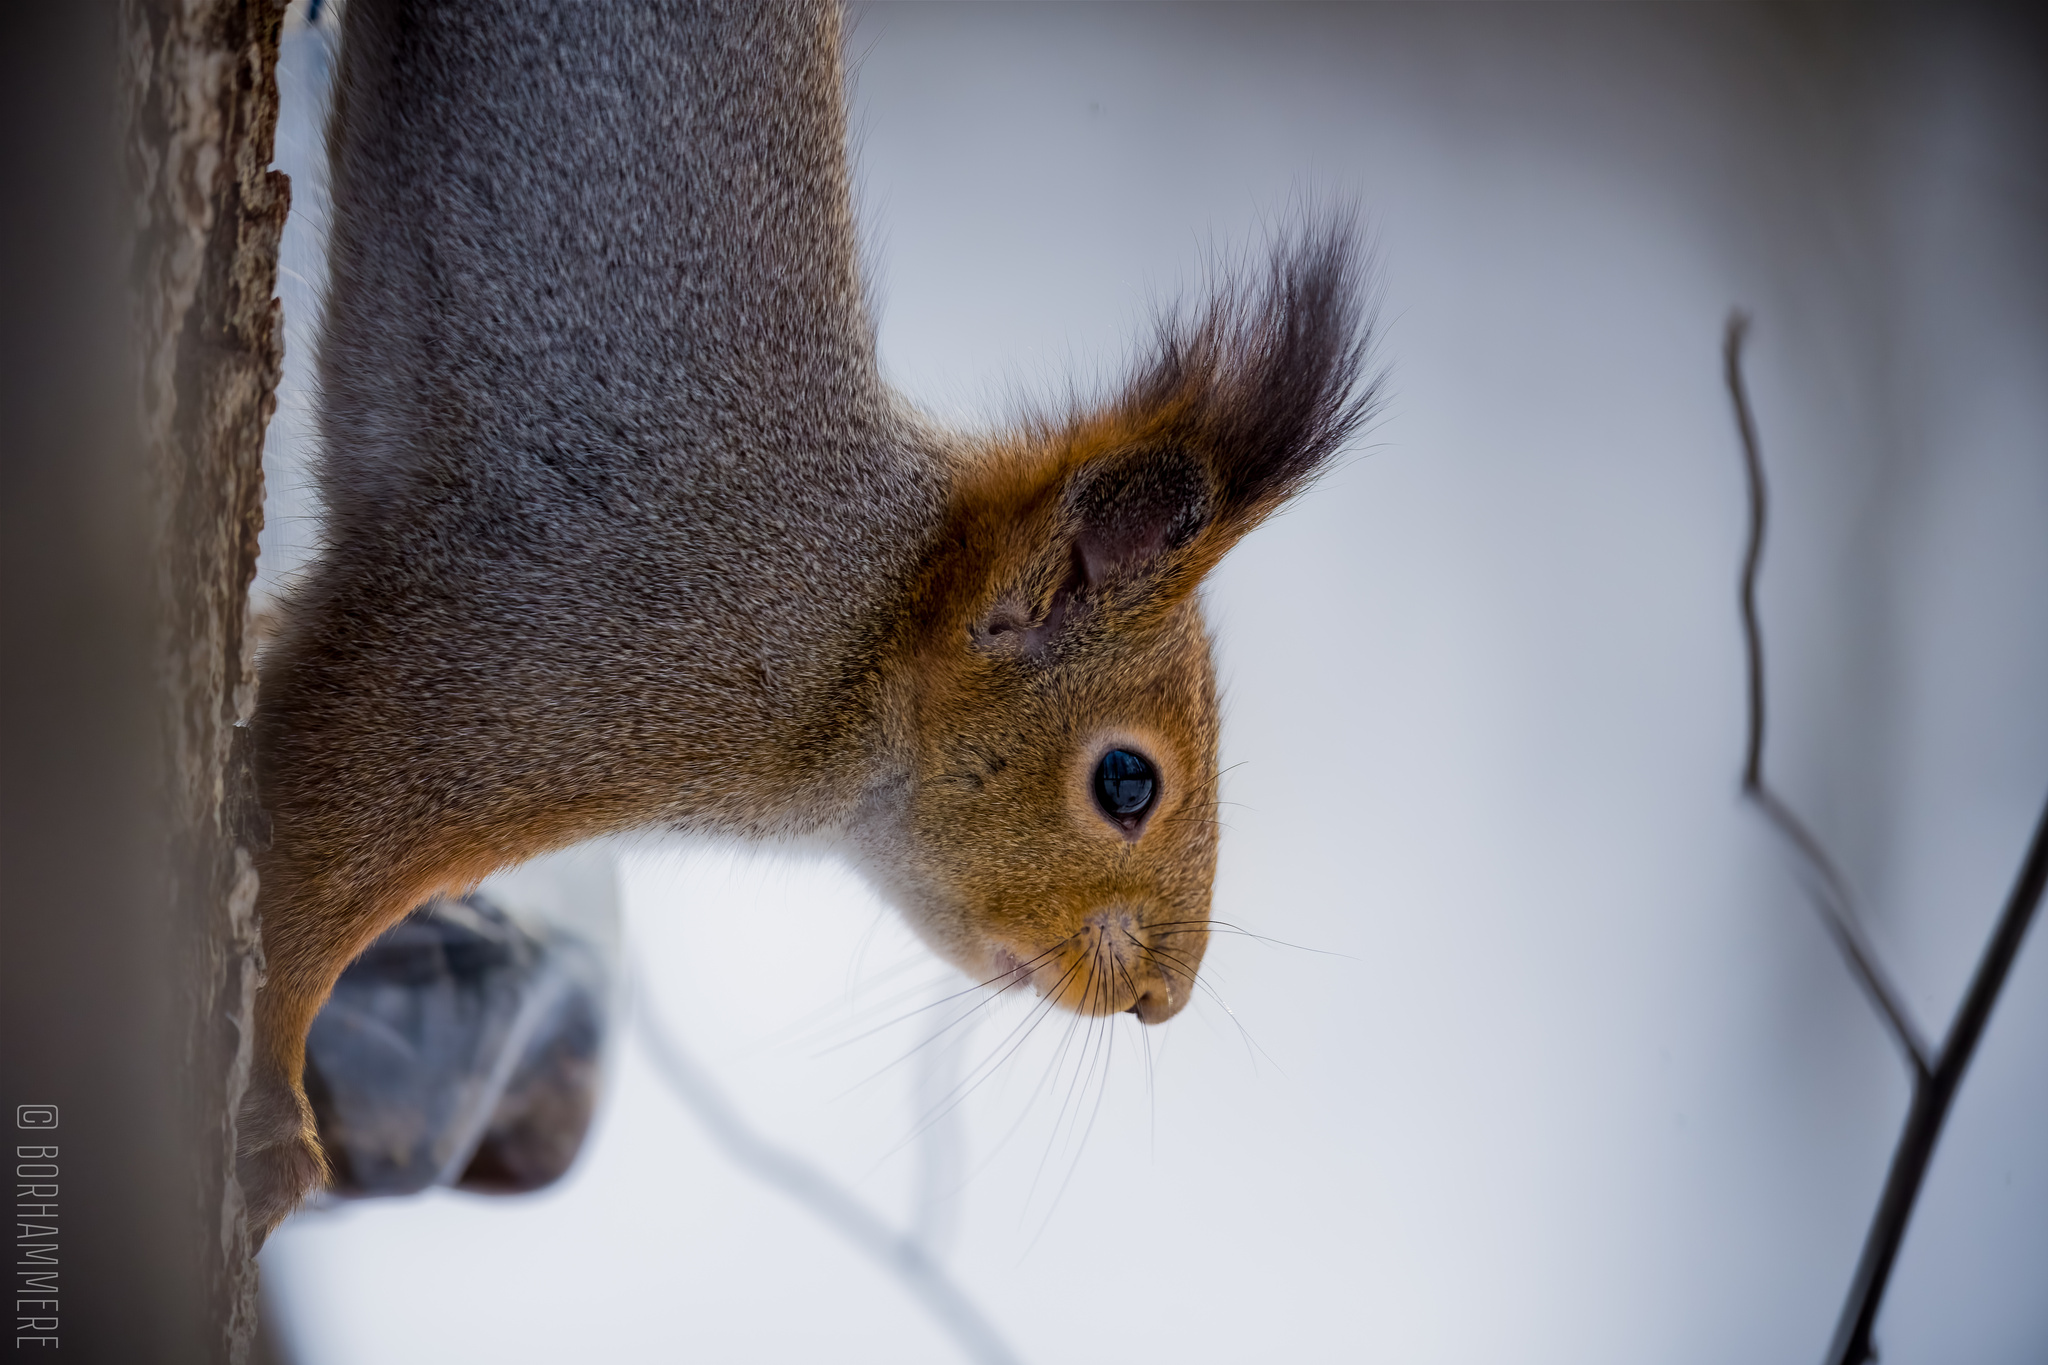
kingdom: Animalia
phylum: Chordata
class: Mammalia
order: Rodentia
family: Sciuridae
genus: Sciurus
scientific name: Sciurus vulgaris
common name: Eurasian red squirrel
